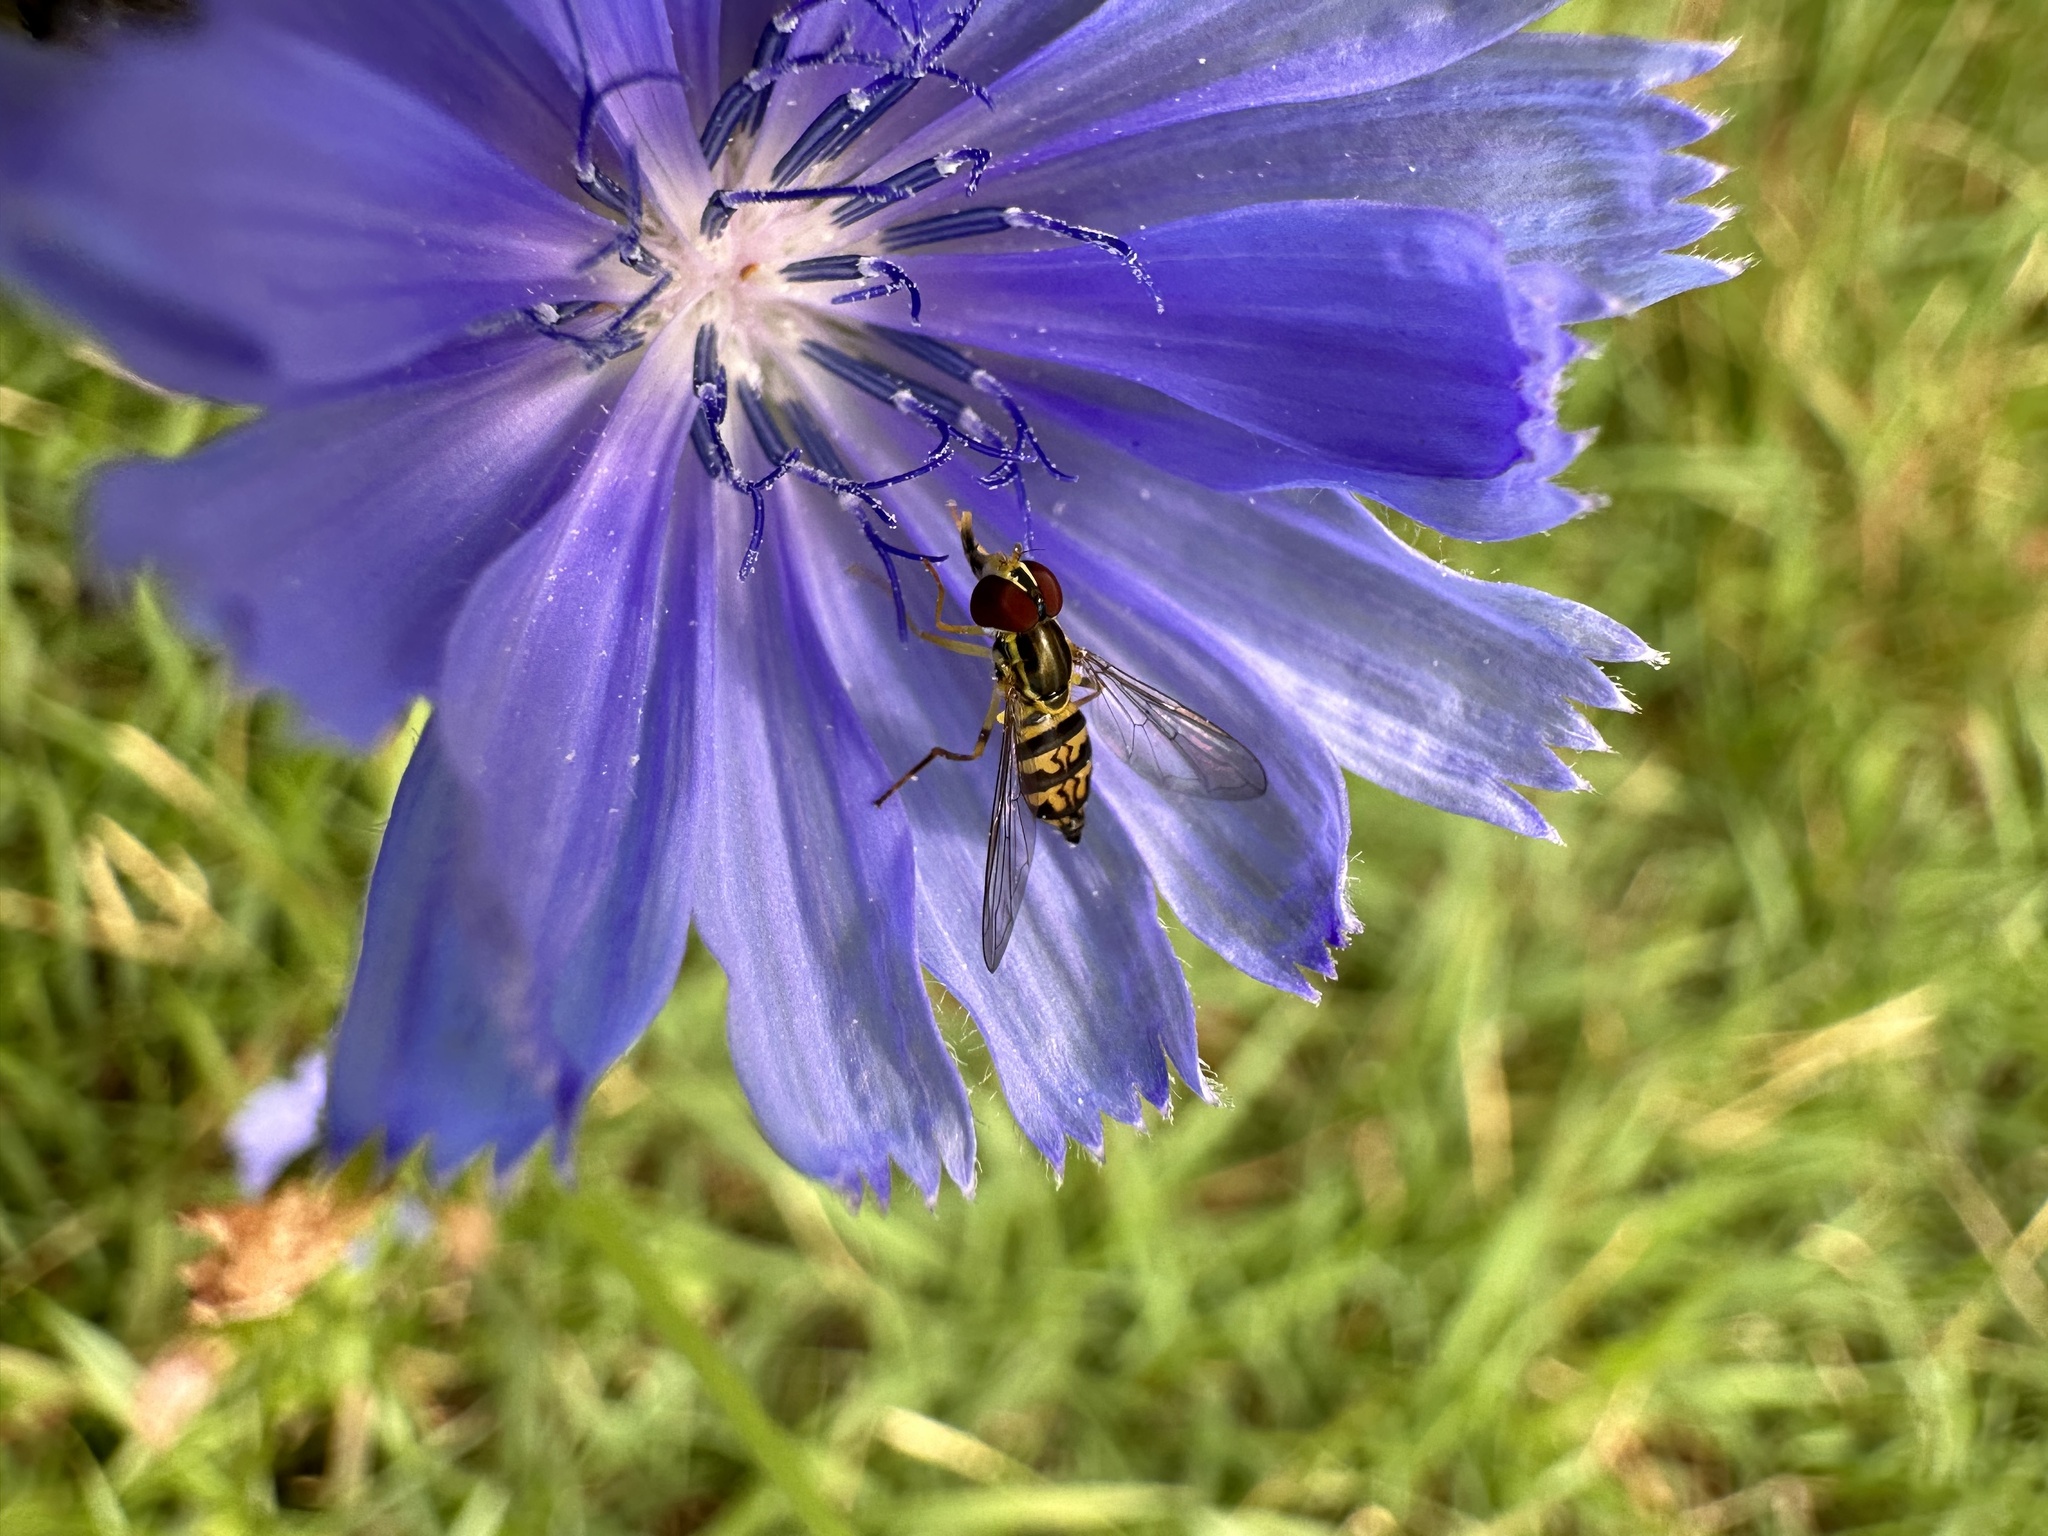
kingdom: Animalia
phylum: Arthropoda
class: Insecta
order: Diptera
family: Syrphidae
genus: Toxomerus
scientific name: Toxomerus geminatus
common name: Eastern calligrapher
